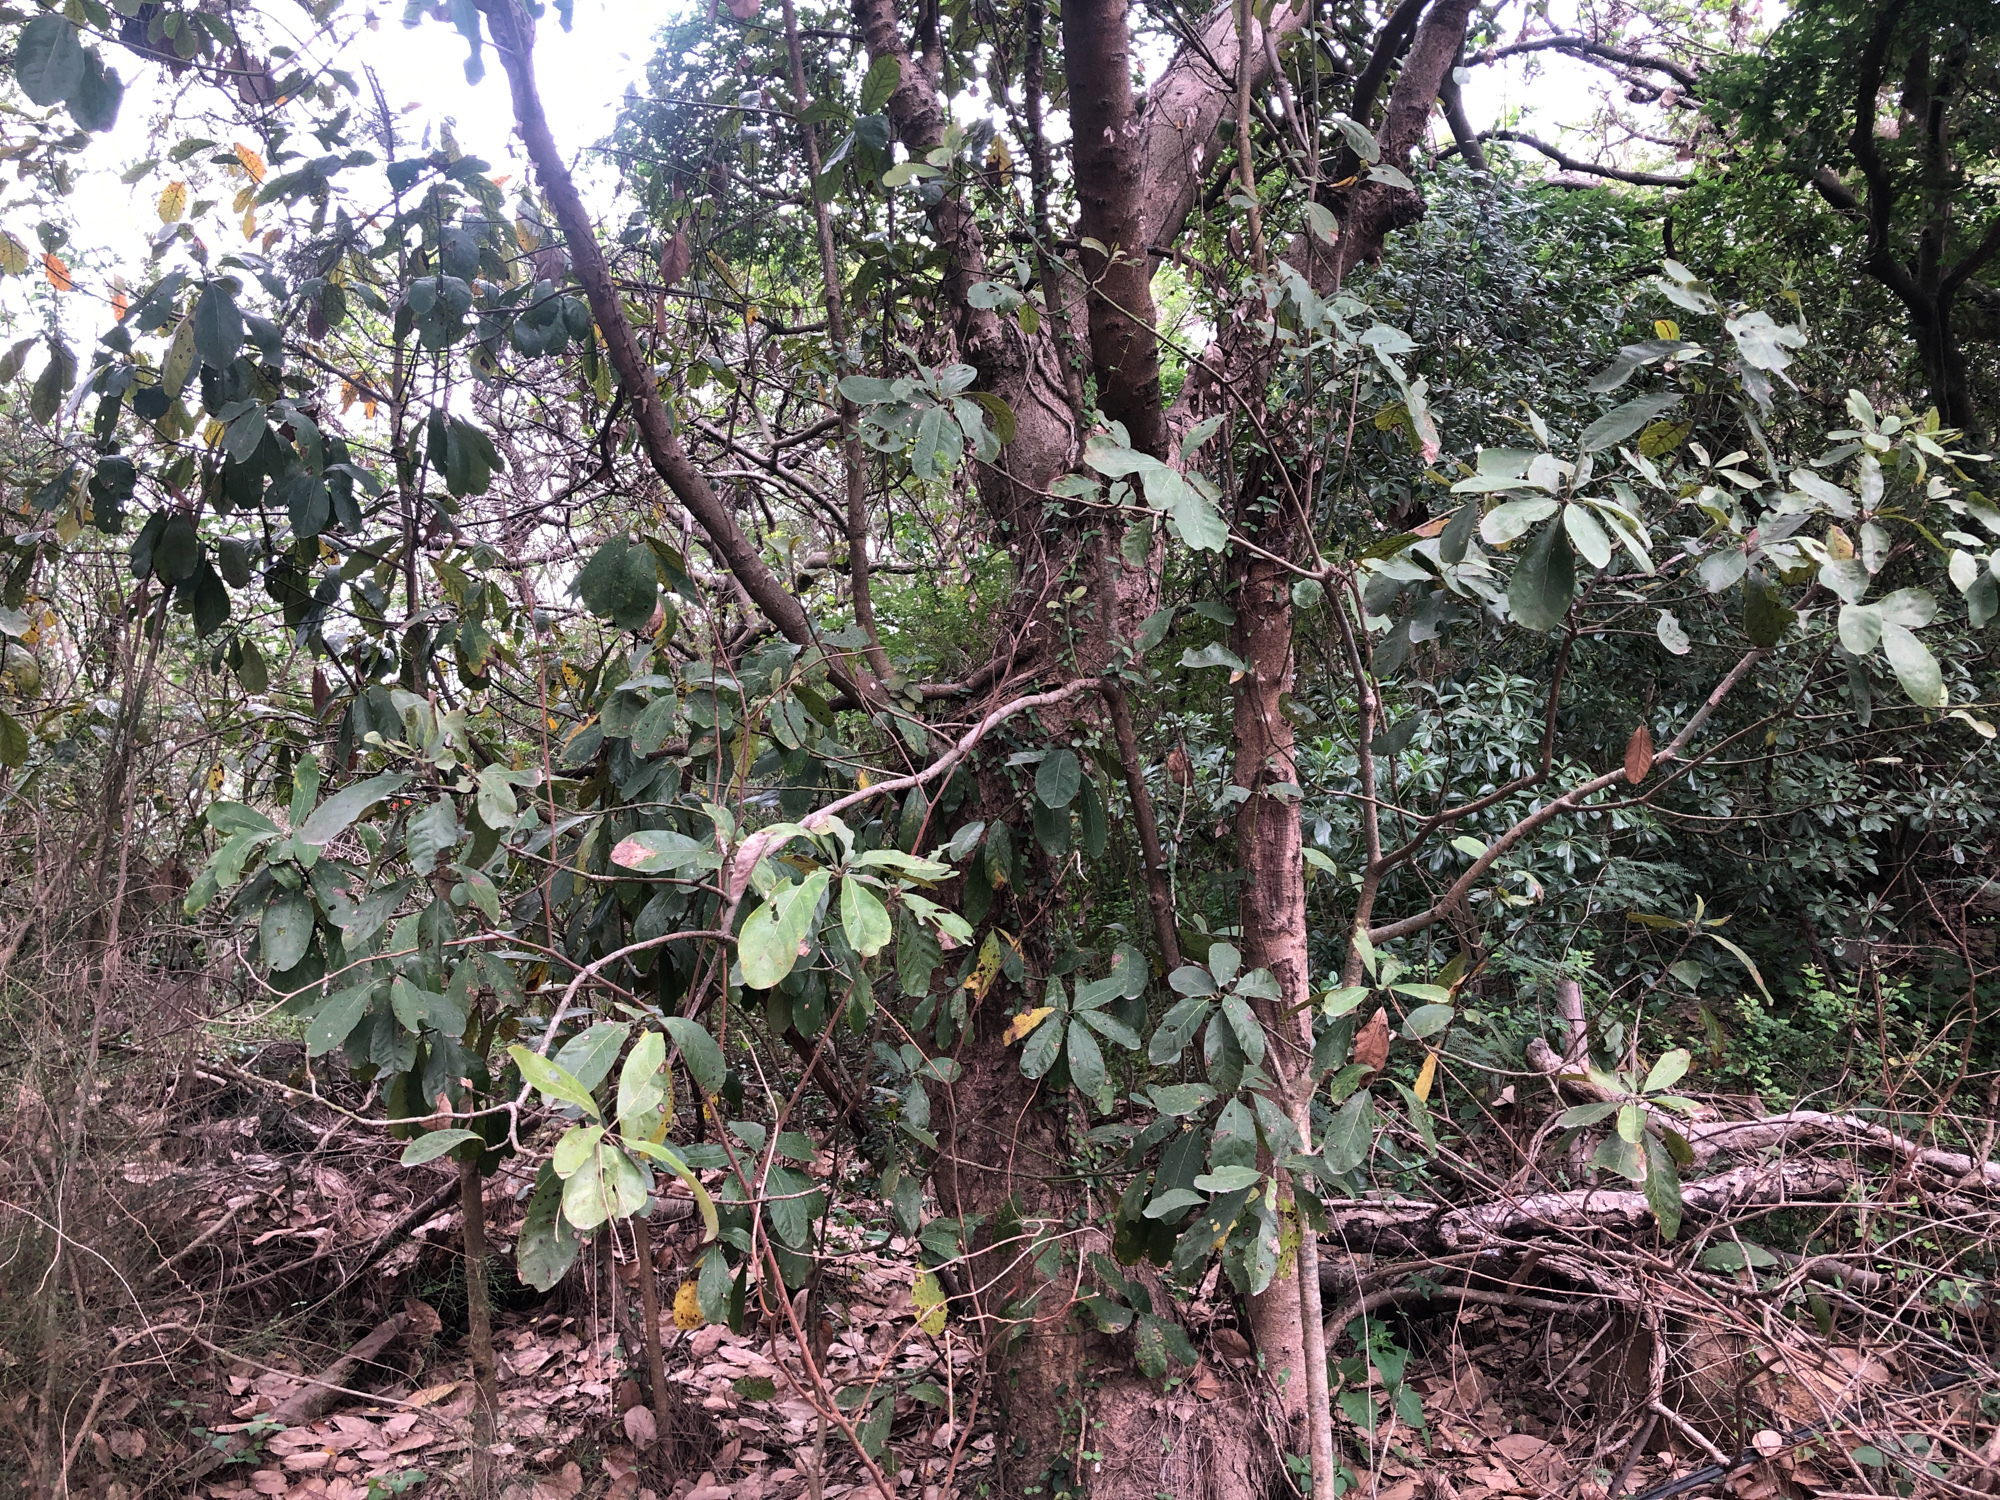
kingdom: Plantae
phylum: Tracheophyta
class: Magnoliopsida
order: Laurales
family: Lauraceae
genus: Litsea
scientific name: Litsea glutinosa
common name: Indian-laurel
